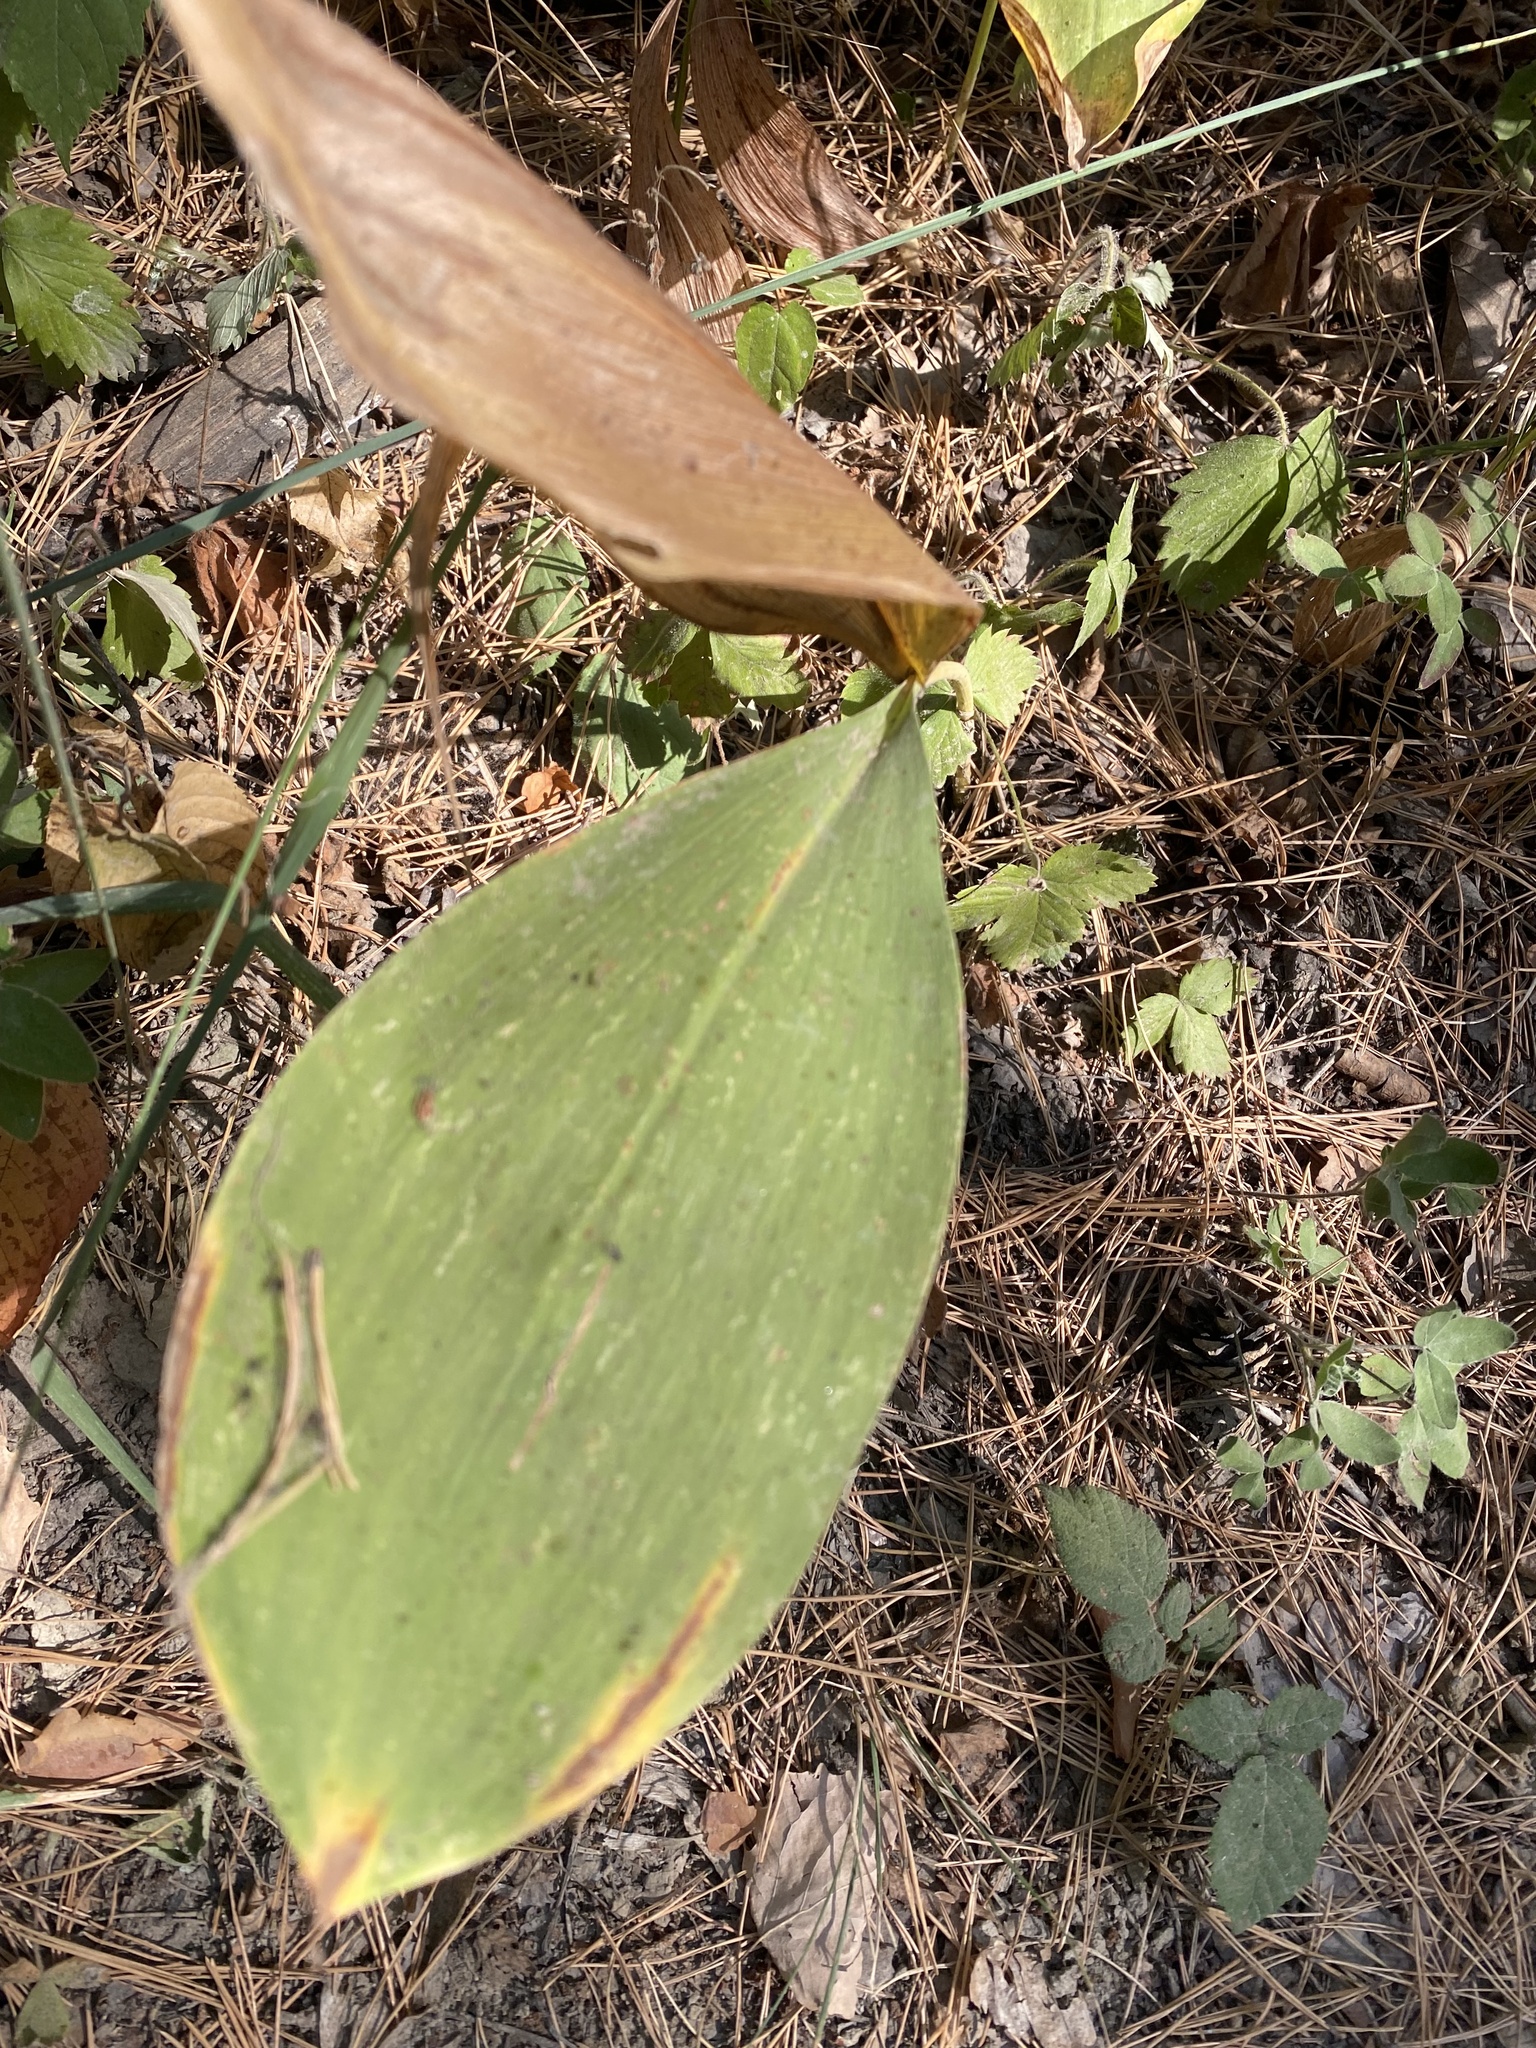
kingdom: Plantae
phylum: Tracheophyta
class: Liliopsida
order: Asparagales
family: Asparagaceae
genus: Convallaria
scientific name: Convallaria majalis
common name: Lily-of-the-valley
